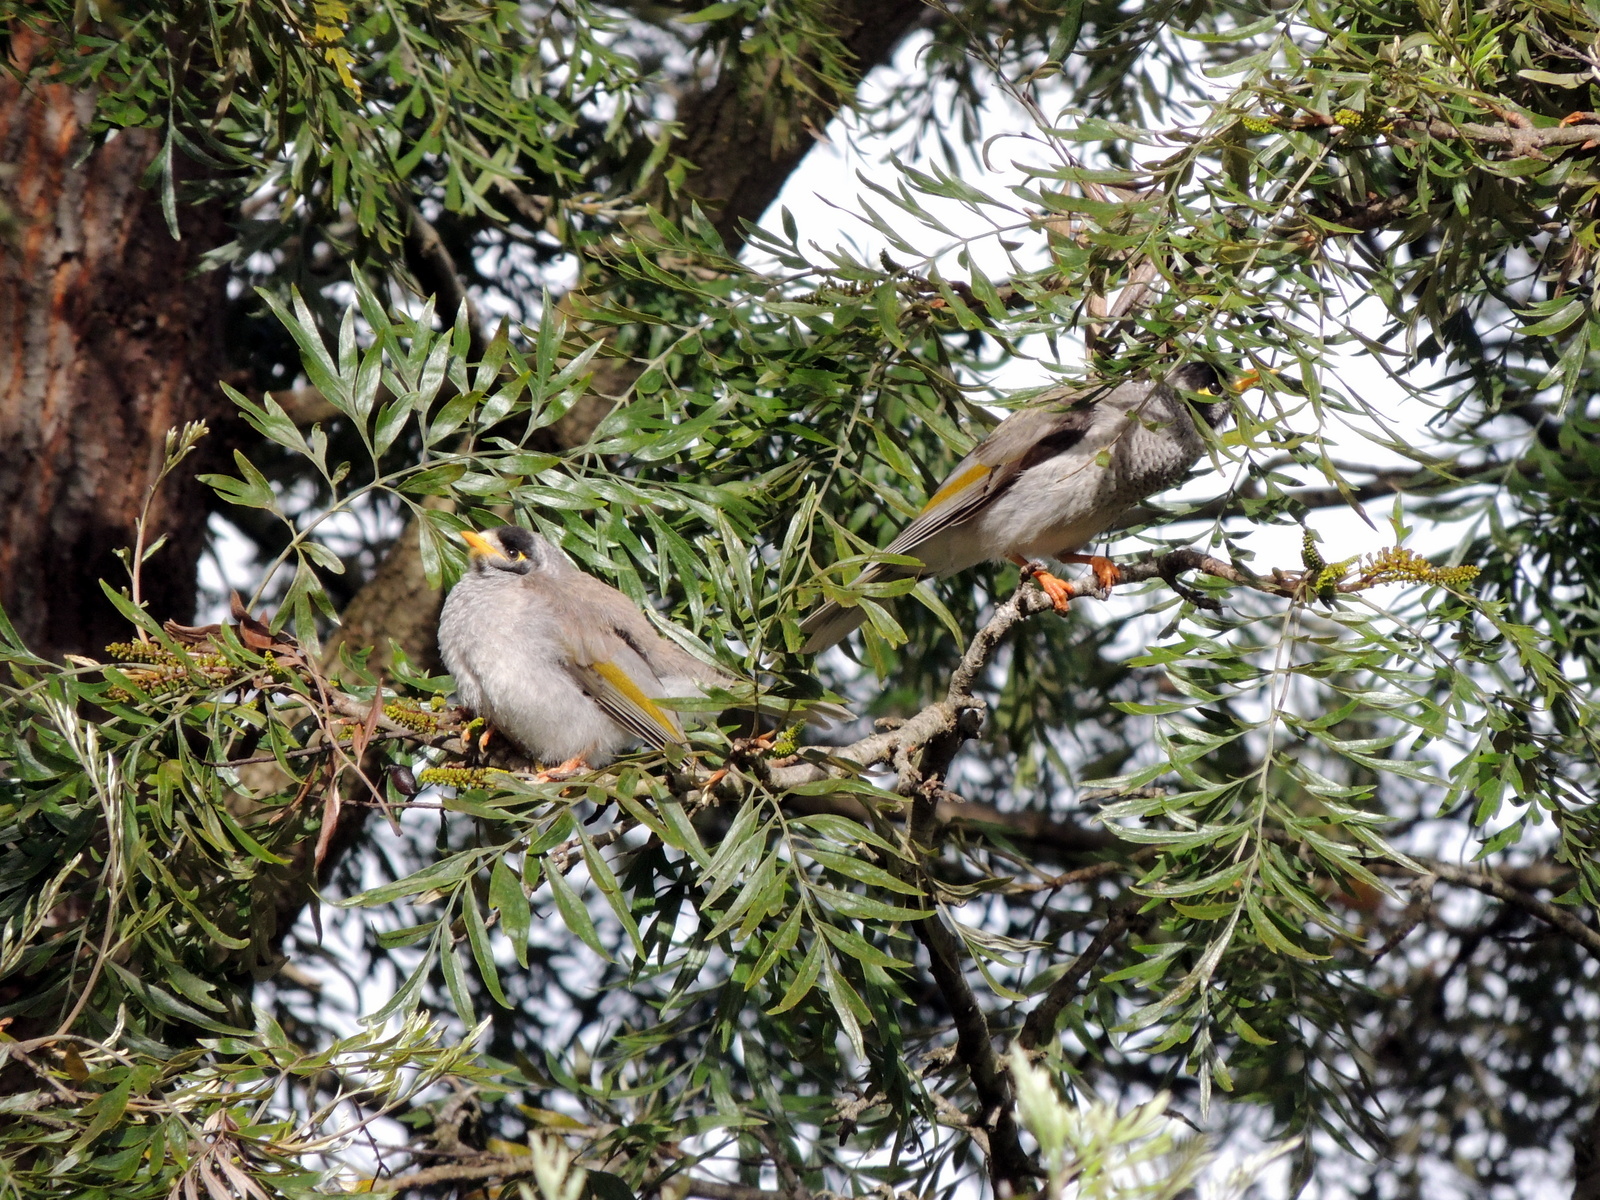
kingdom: Animalia
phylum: Chordata
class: Aves
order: Passeriformes
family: Meliphagidae
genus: Manorina
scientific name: Manorina melanocephala
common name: Noisy miner
